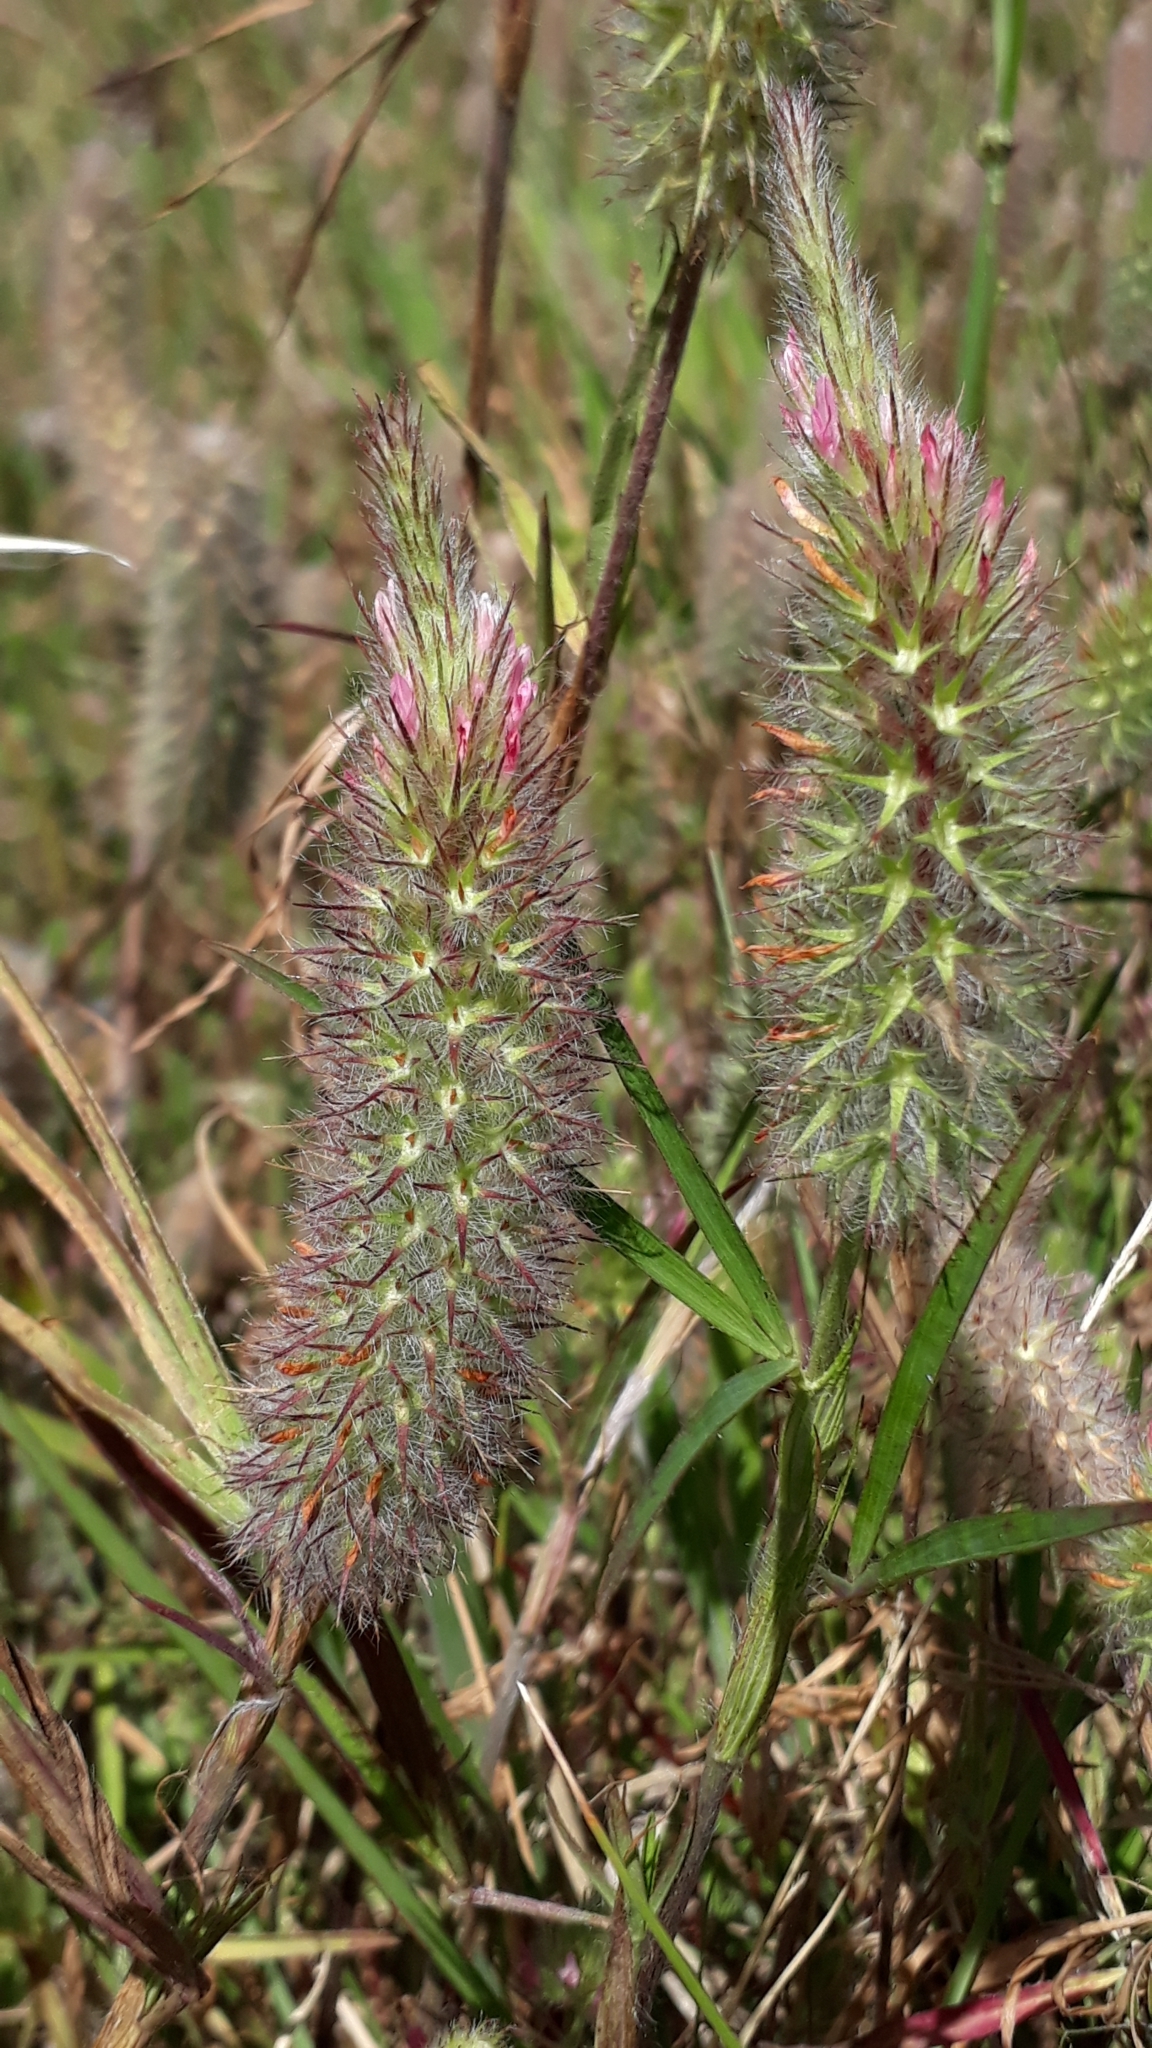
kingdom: Plantae
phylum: Tracheophyta
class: Magnoliopsida
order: Fabales
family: Fabaceae
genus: Trifolium
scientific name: Trifolium angustifolium
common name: Narrow clover
